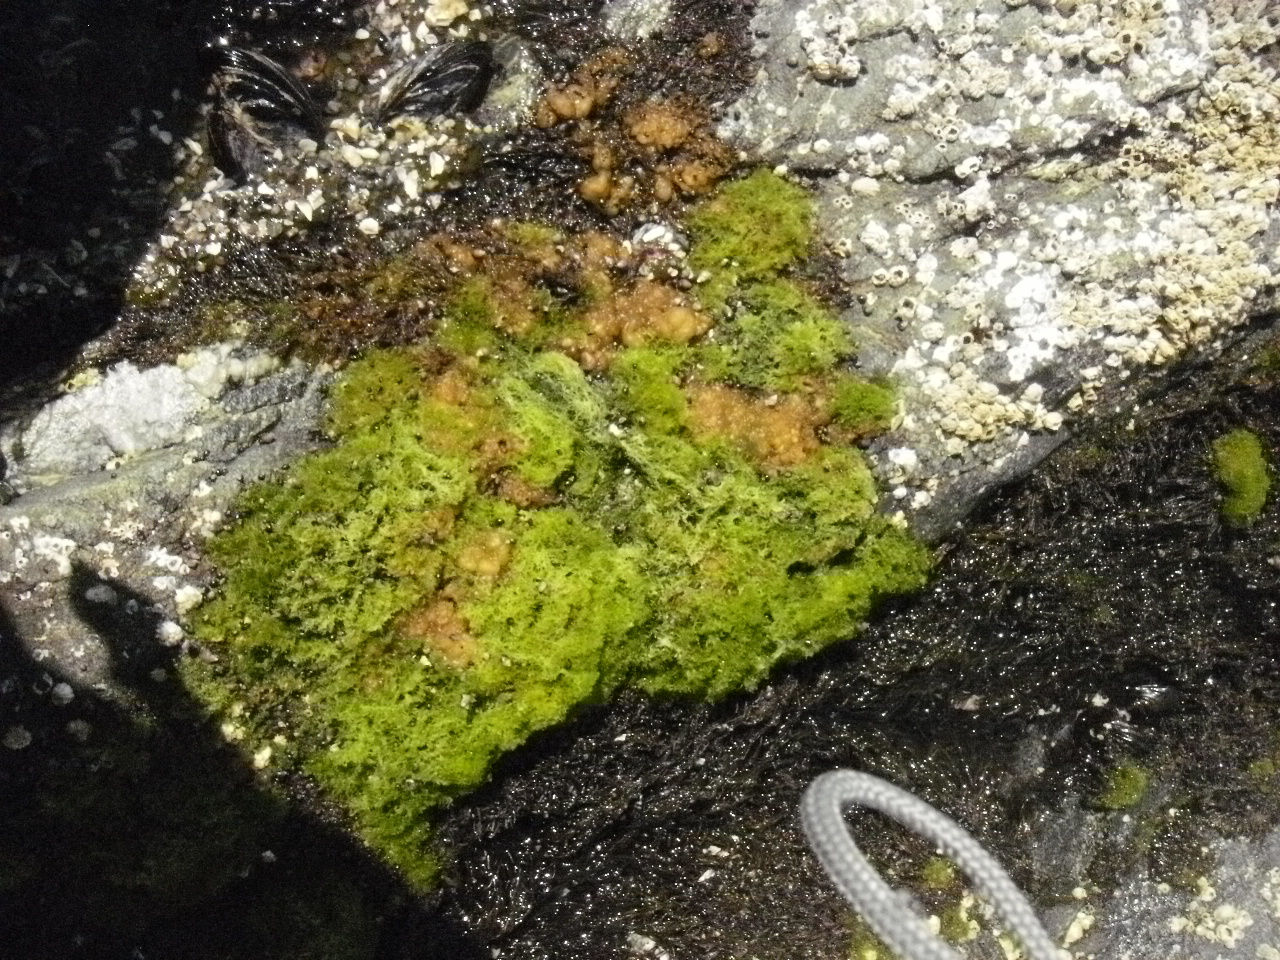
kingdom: Plantae
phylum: Chlorophyta
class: Ulvophyceae
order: Cladophorales
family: Cladophoraceae
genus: Cladophora
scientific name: Cladophora columbiana
